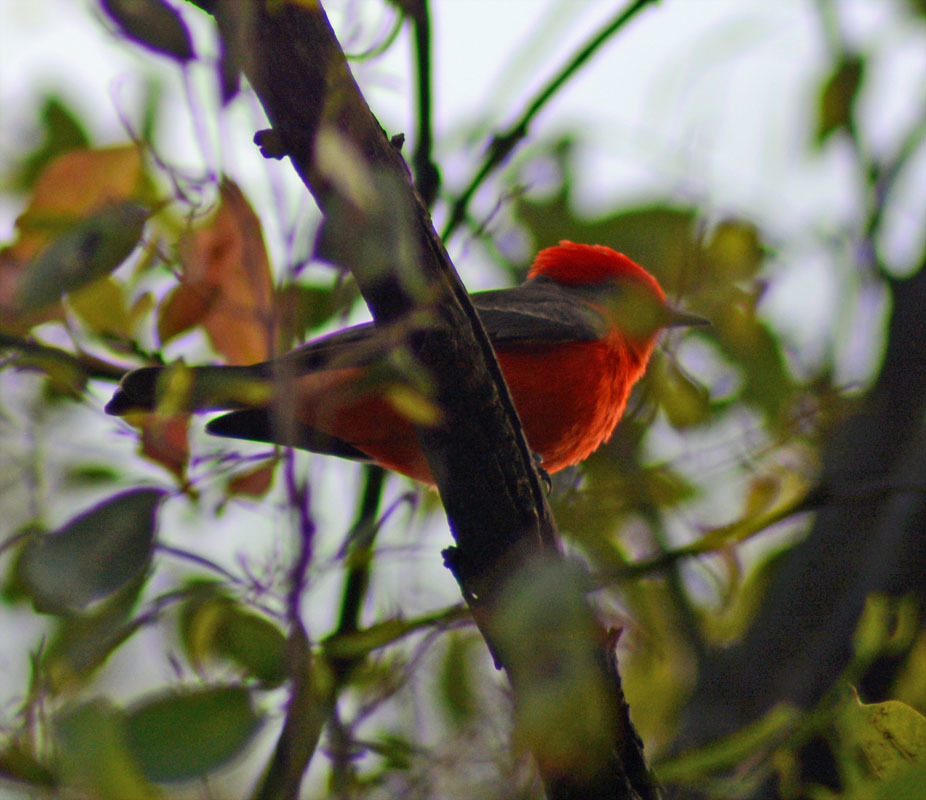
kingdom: Animalia
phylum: Chordata
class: Aves
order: Passeriformes
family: Tyrannidae
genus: Pyrocephalus
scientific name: Pyrocephalus rubinus
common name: Vermilion flycatcher
